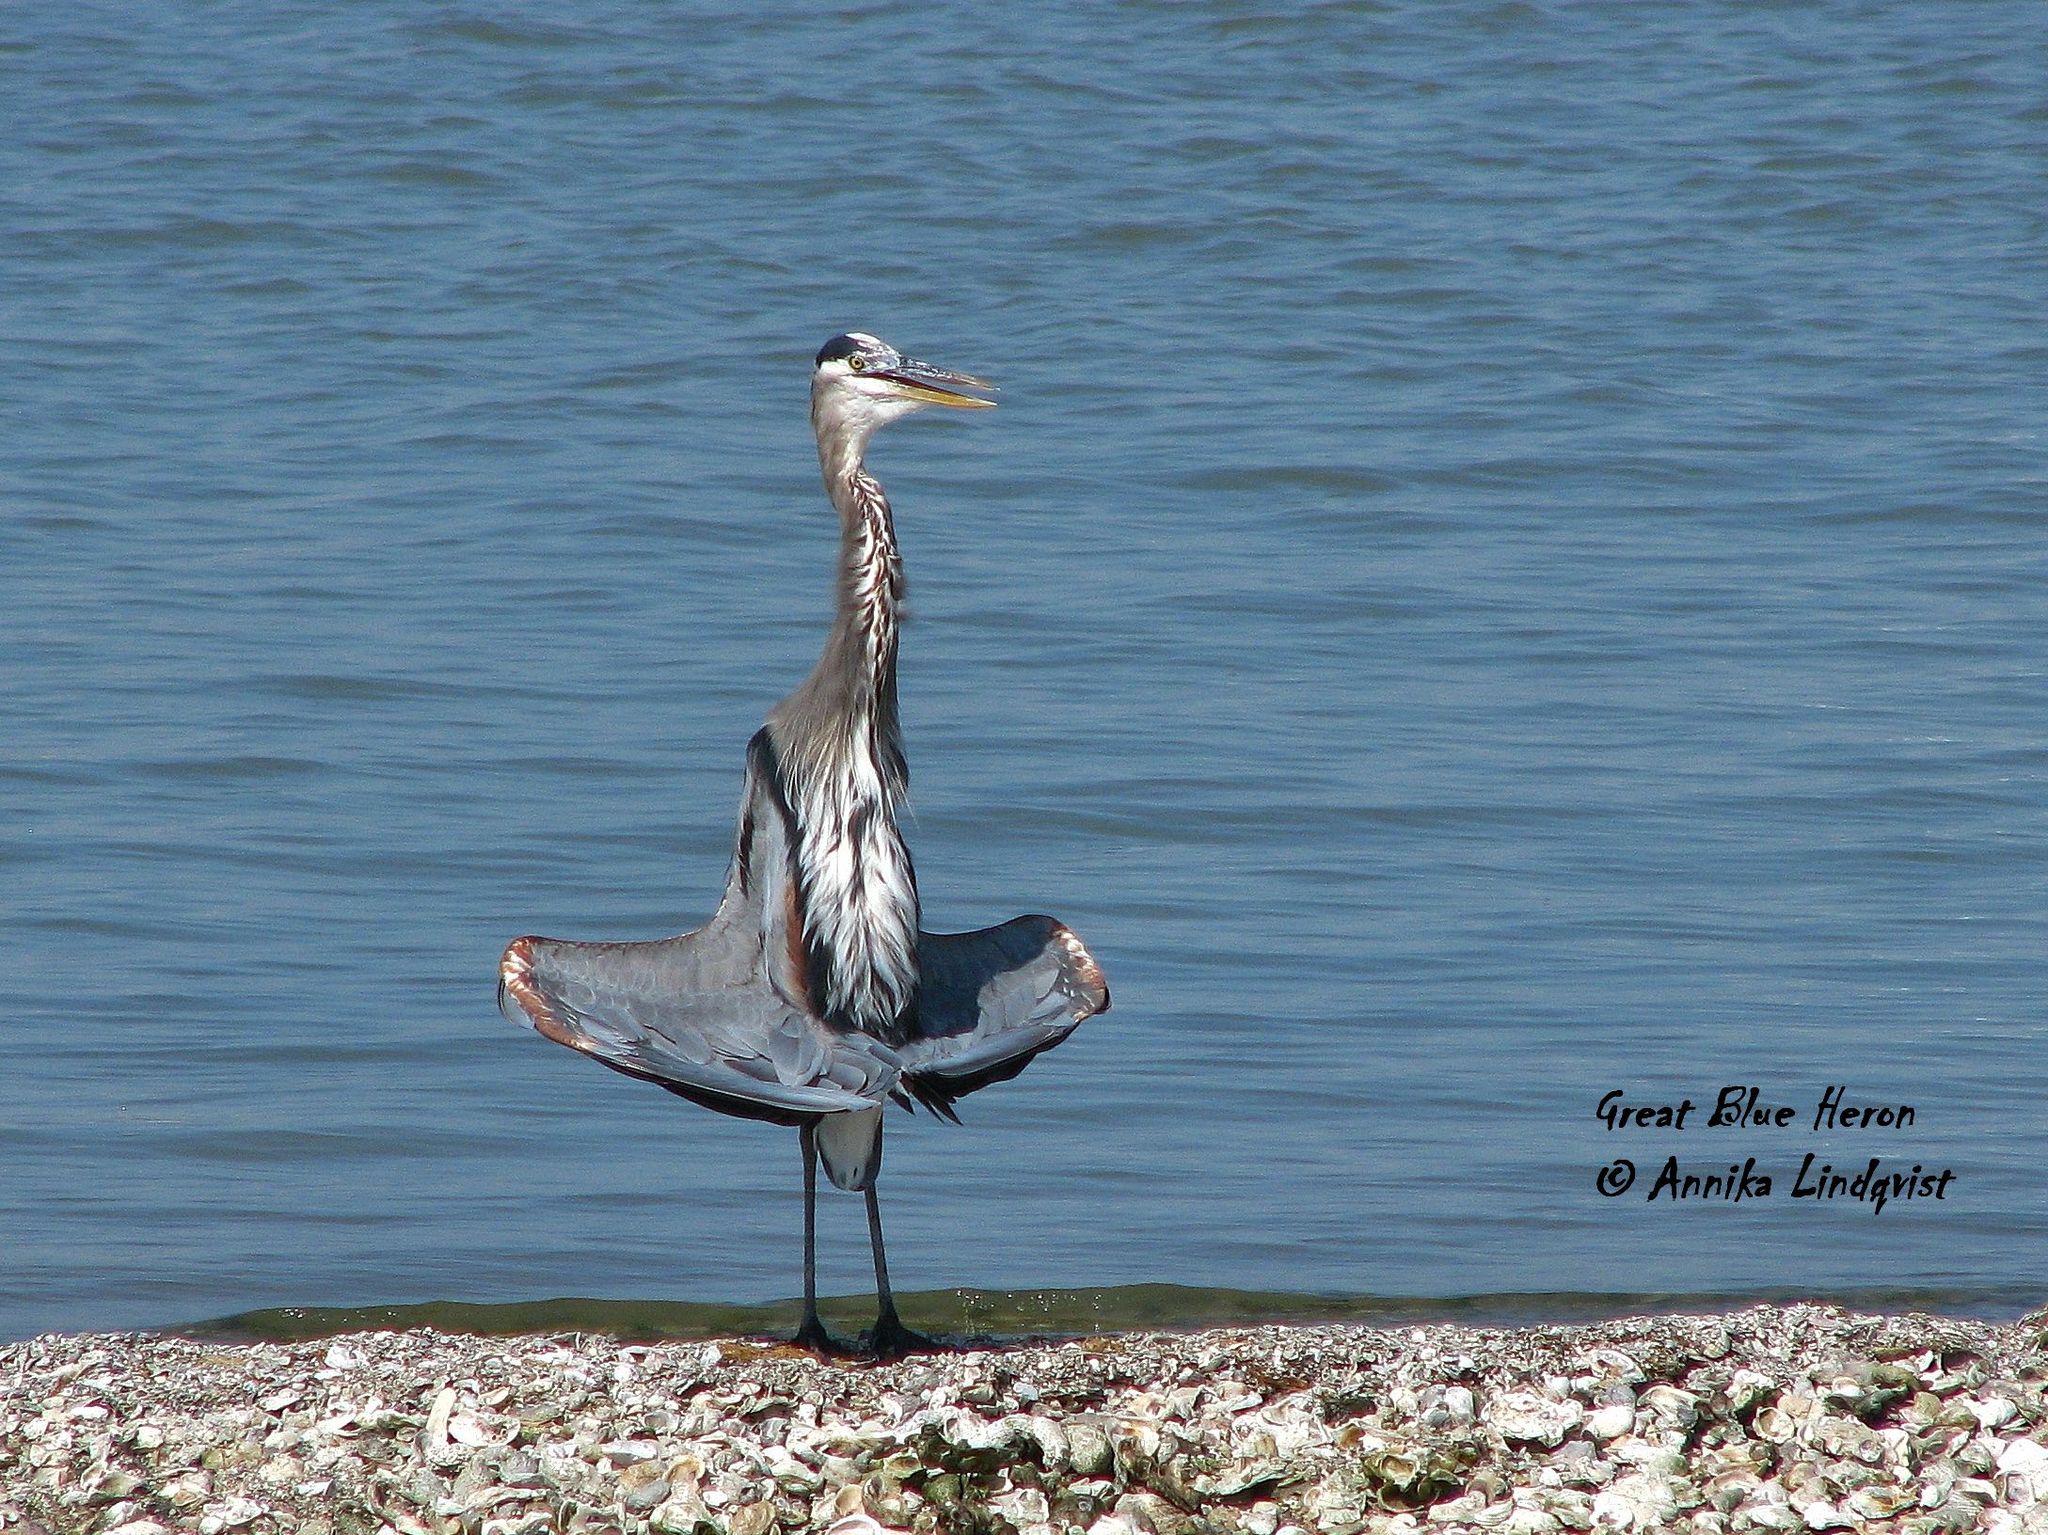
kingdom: Animalia
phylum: Chordata
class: Aves
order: Pelecaniformes
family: Ardeidae
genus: Ardea
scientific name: Ardea herodias
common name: Great blue heron
